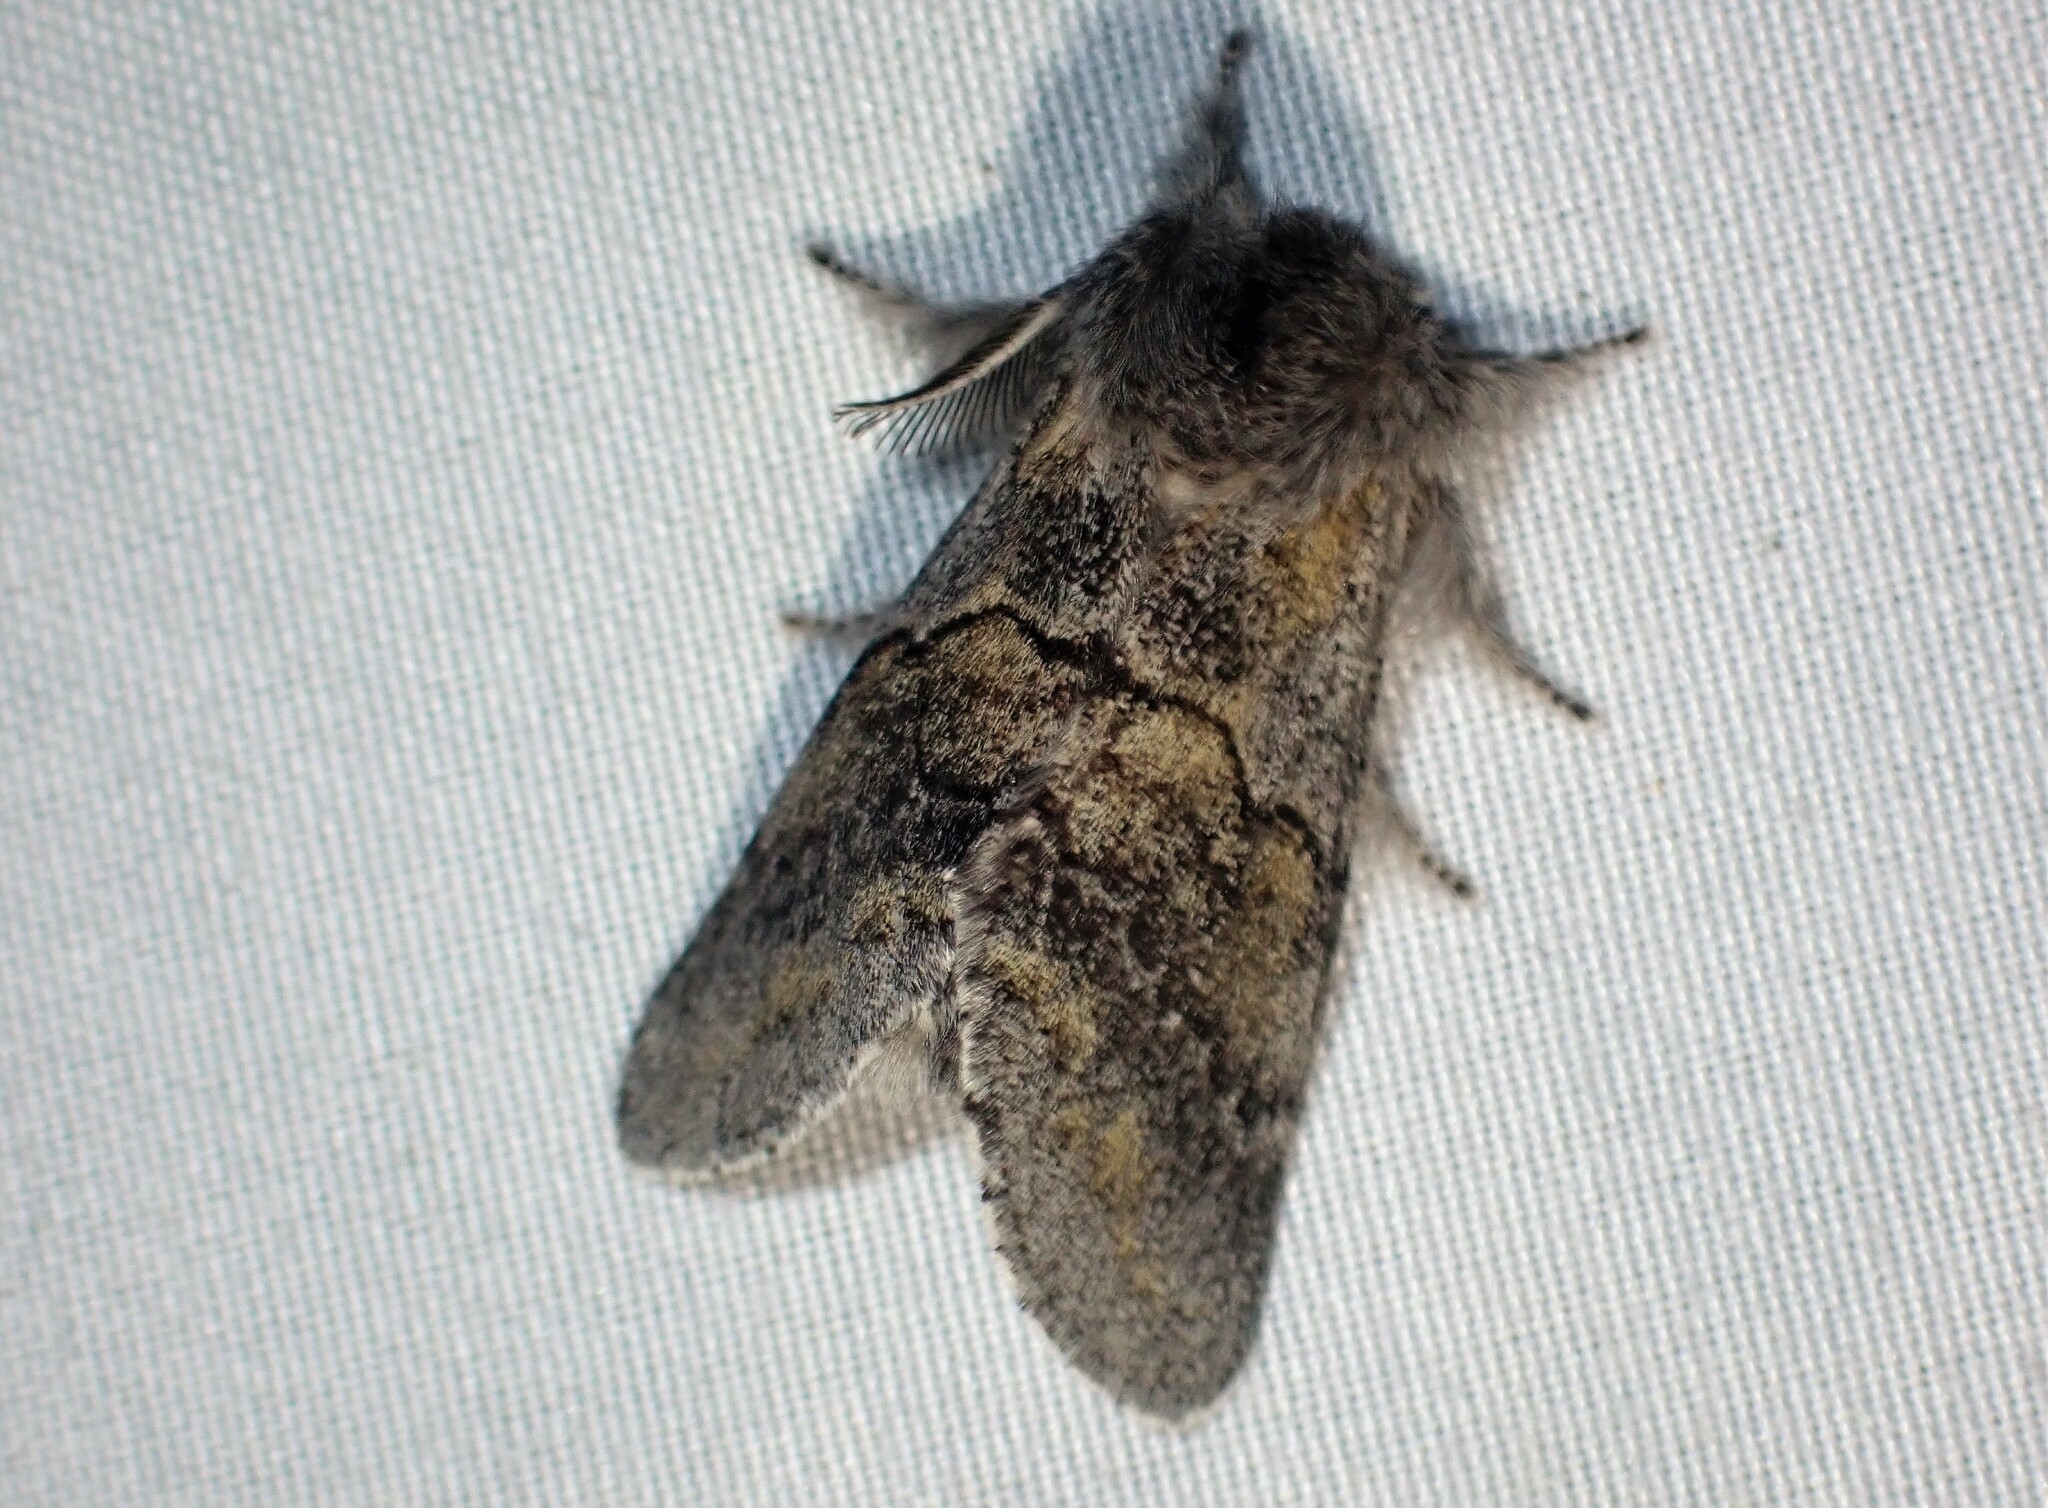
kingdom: Animalia
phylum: Arthropoda
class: Insecta
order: Lepidoptera
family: Notodontidae
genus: Gluphisia
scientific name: Gluphisia lintneri
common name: Lintner's gluphisia moth
